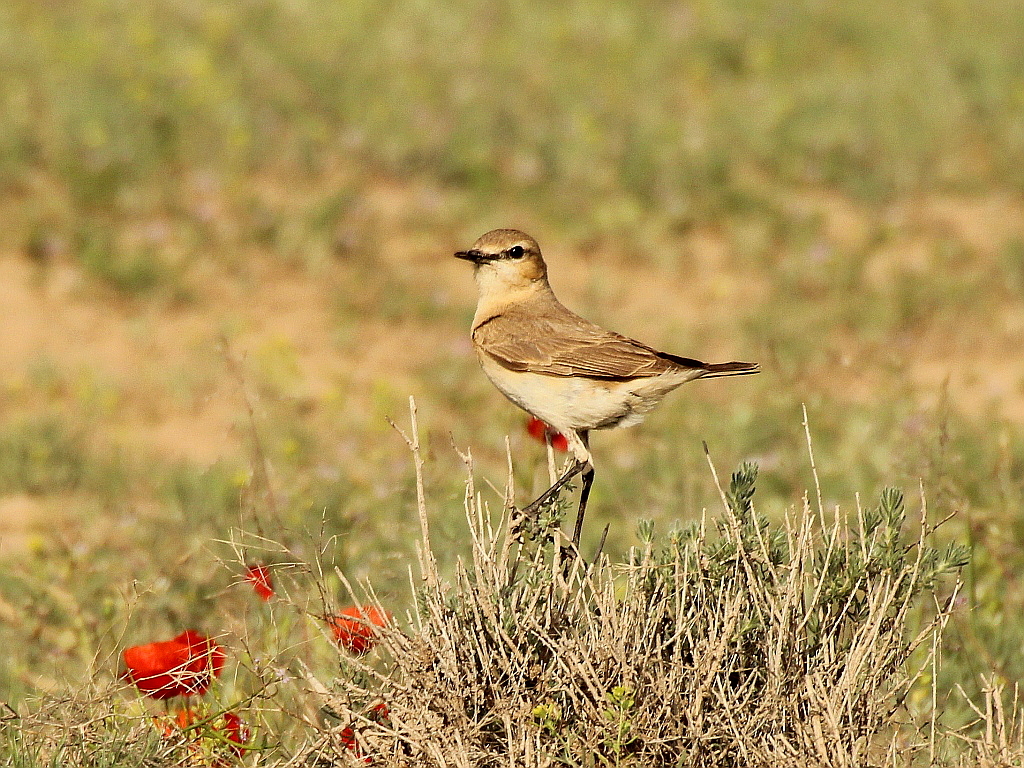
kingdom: Animalia
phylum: Chordata
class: Aves
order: Passeriformes
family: Muscicapidae
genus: Oenanthe
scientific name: Oenanthe isabellina
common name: Isabelline wheatear
